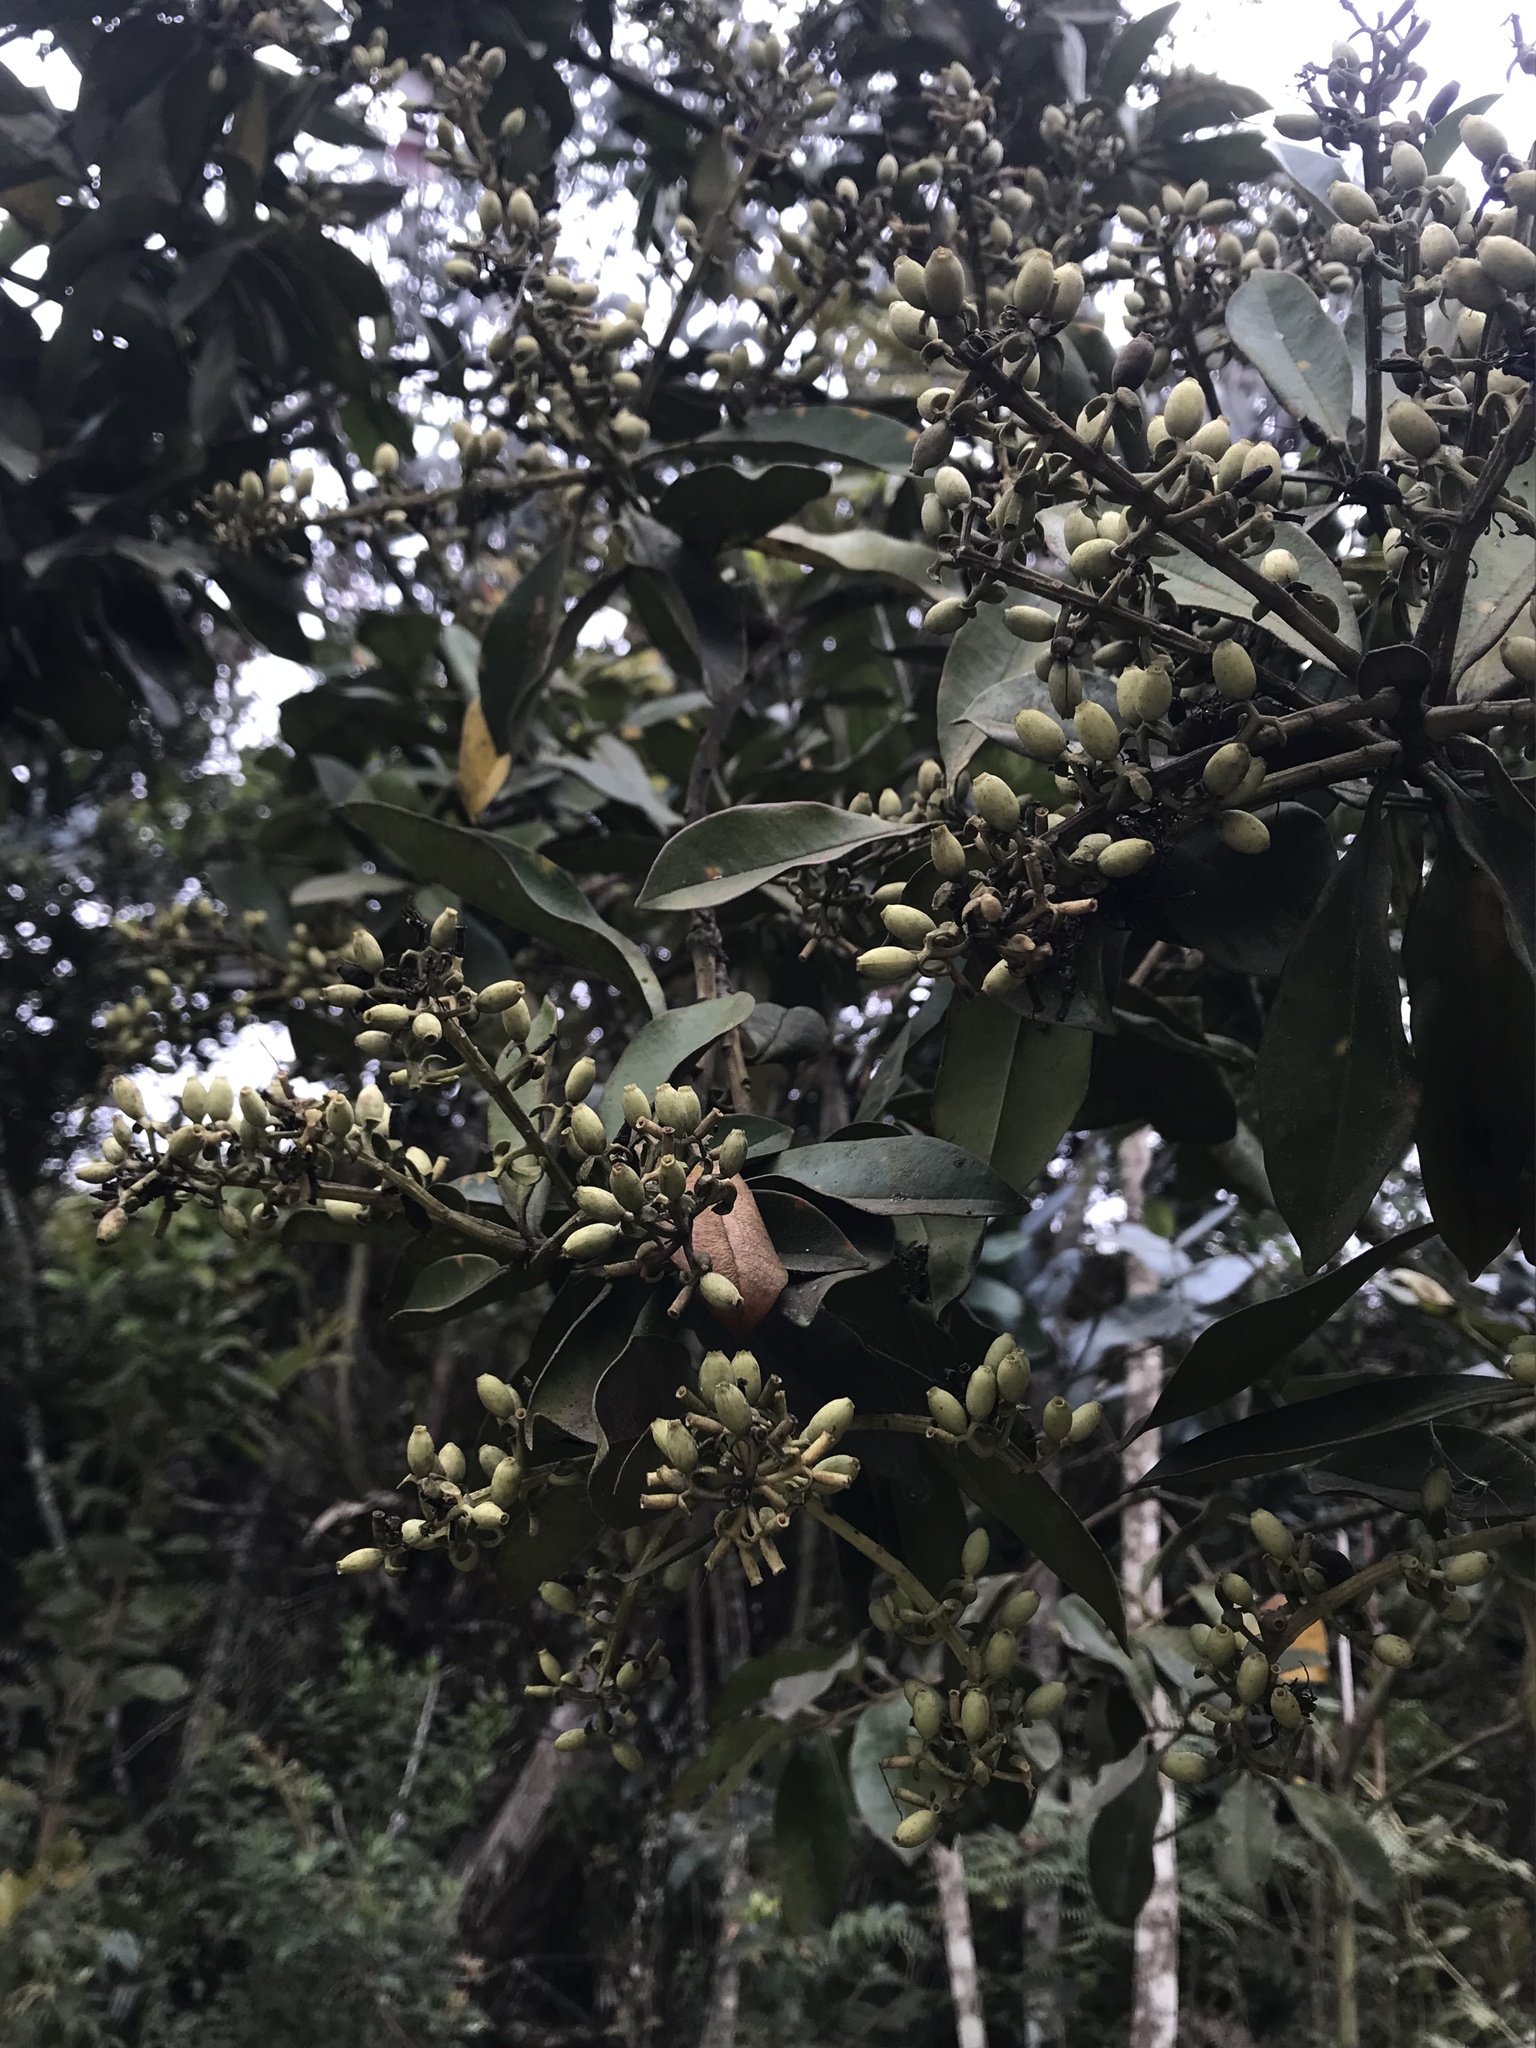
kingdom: Plantae
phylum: Tracheophyta
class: Magnoliopsida
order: Santalales
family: Loranthaceae
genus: Gaiadendron
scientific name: Gaiadendron punctatum
